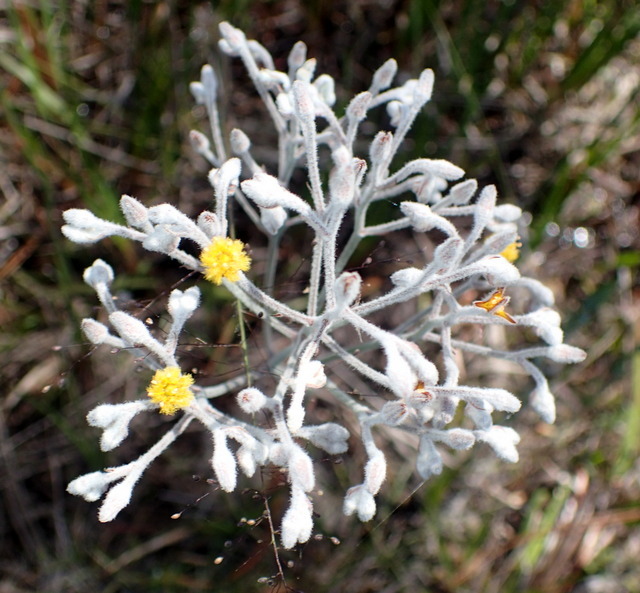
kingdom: Plantae
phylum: Tracheophyta
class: Liliopsida
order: Dioscoreales
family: Nartheciaceae
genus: Lophiola
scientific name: Lophiola aurea
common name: Golden-crest
